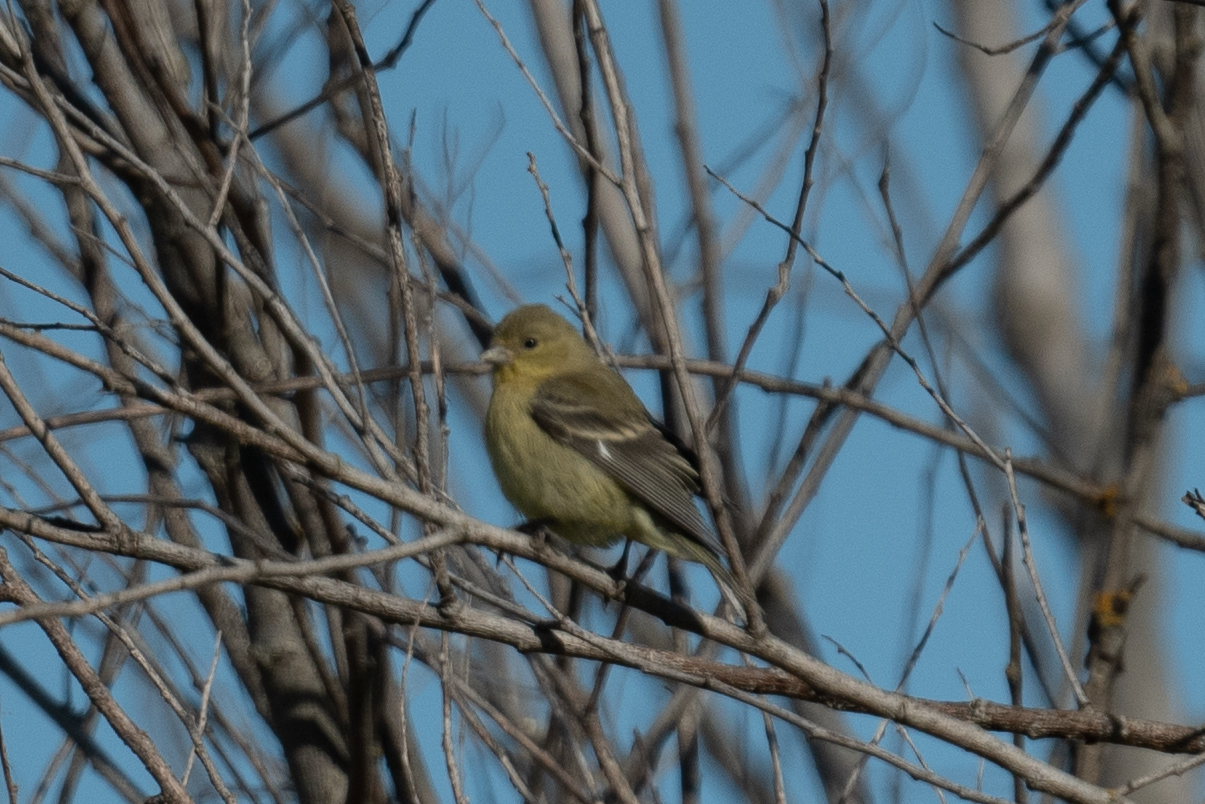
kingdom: Animalia
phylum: Chordata
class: Aves
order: Passeriformes
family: Fringillidae
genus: Spinus
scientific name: Spinus psaltria
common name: Lesser goldfinch
